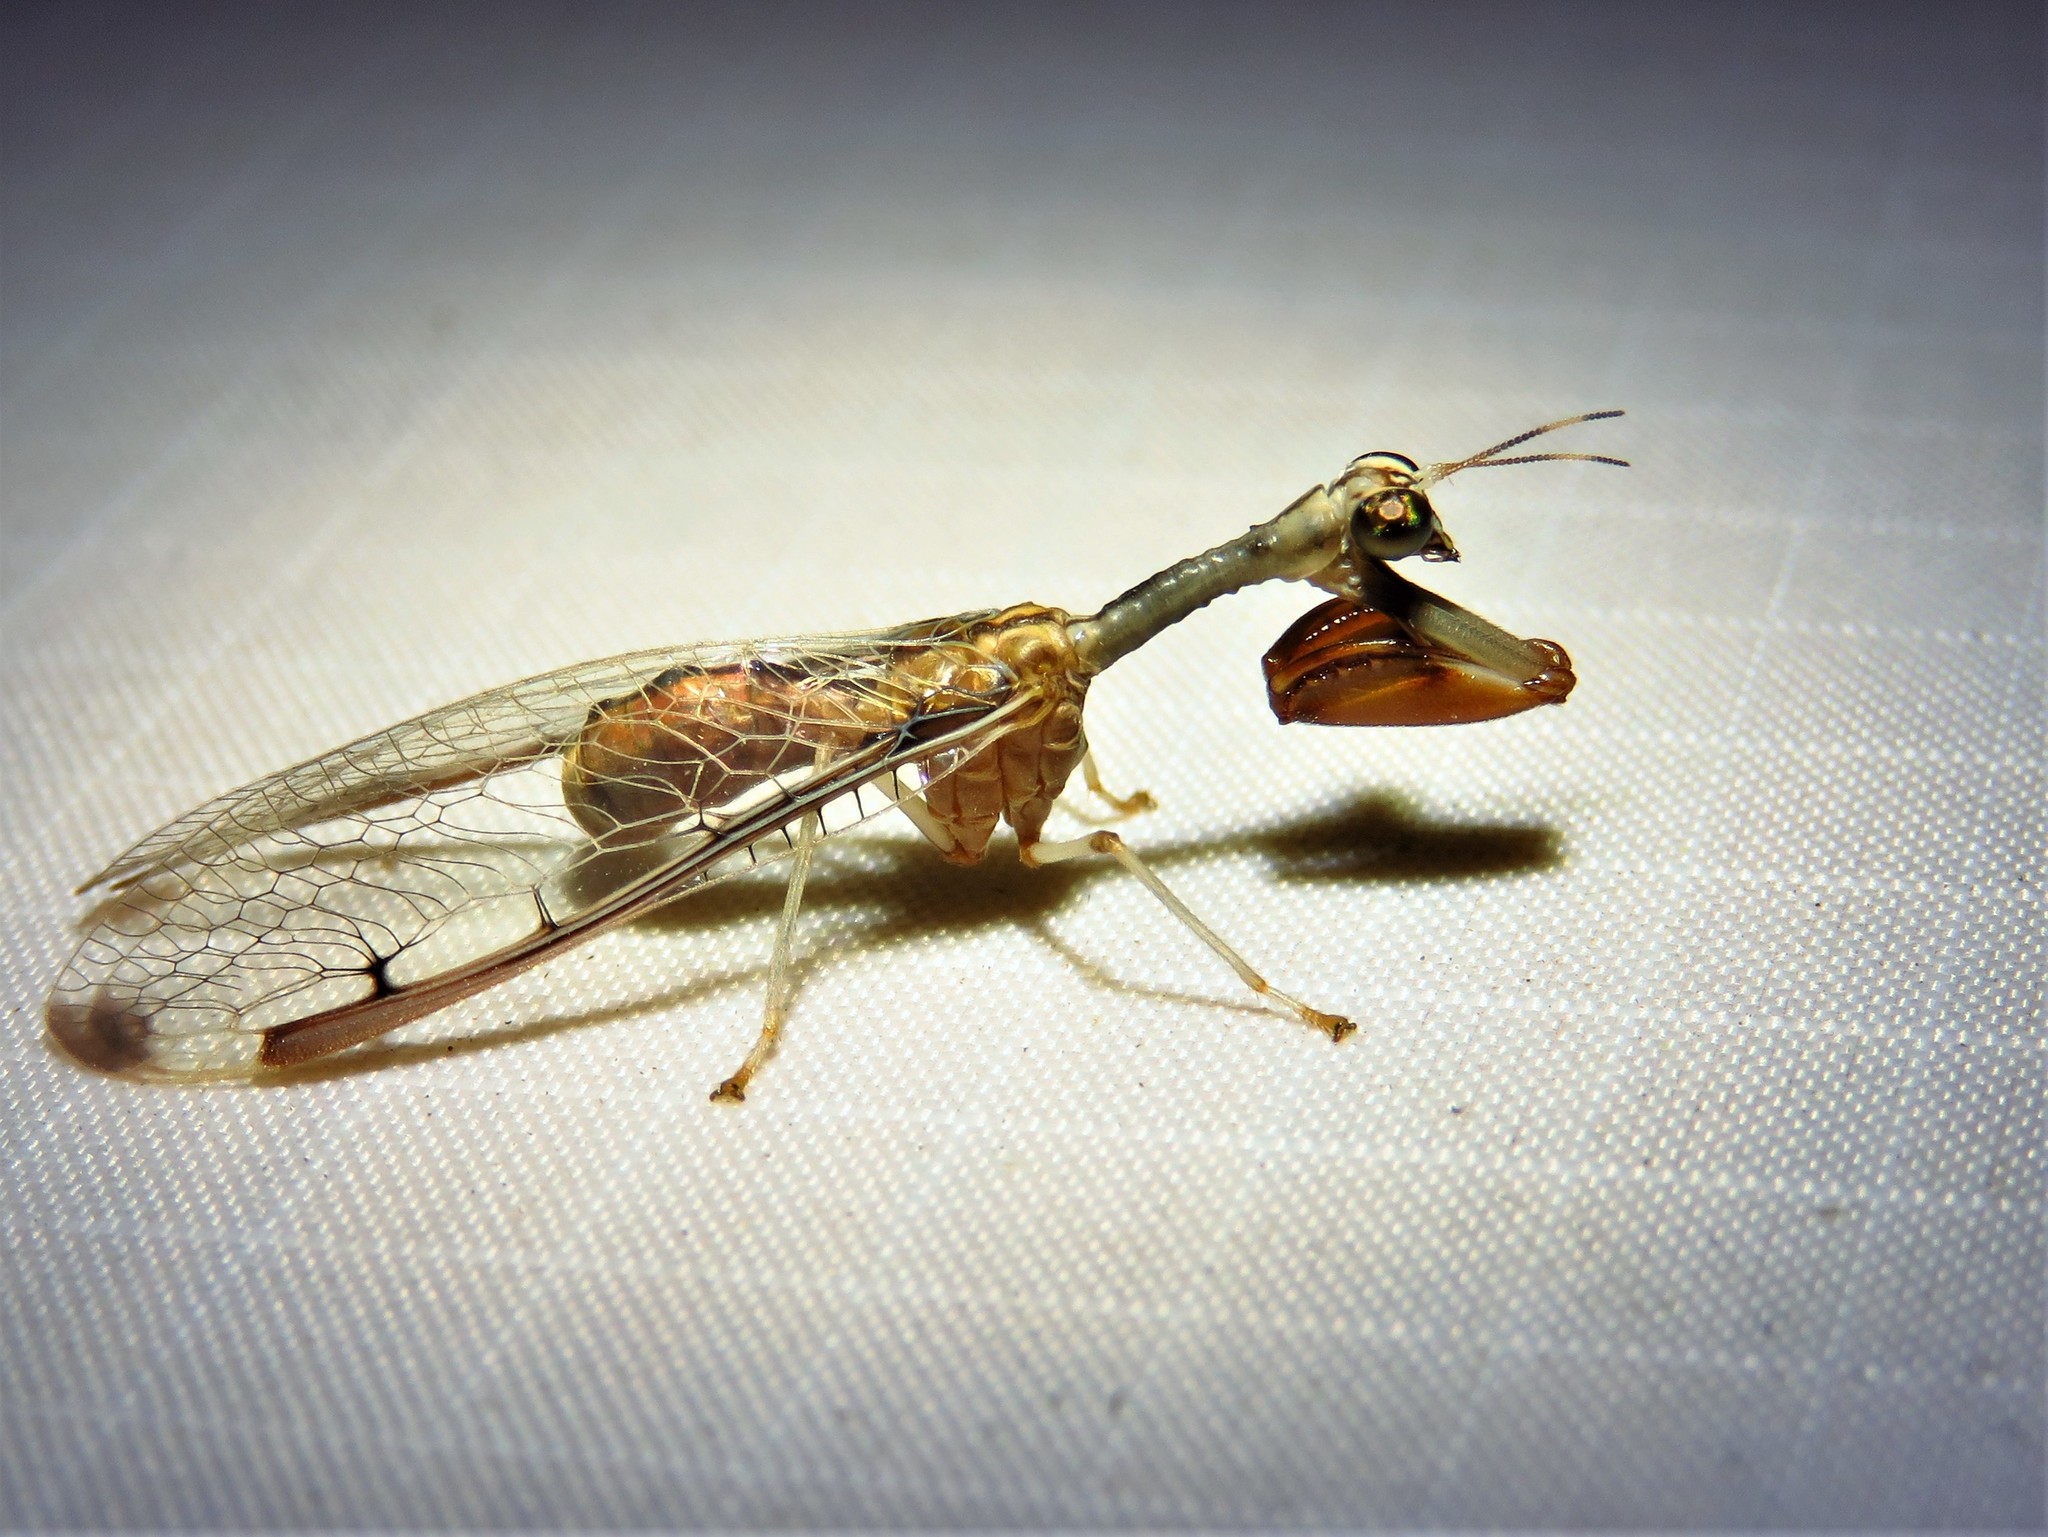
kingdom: Animalia
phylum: Arthropoda
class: Insecta
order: Neuroptera
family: Mantispidae
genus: Dicromantispa
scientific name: Dicromantispa interrupta
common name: Four-spotted mantidfly
